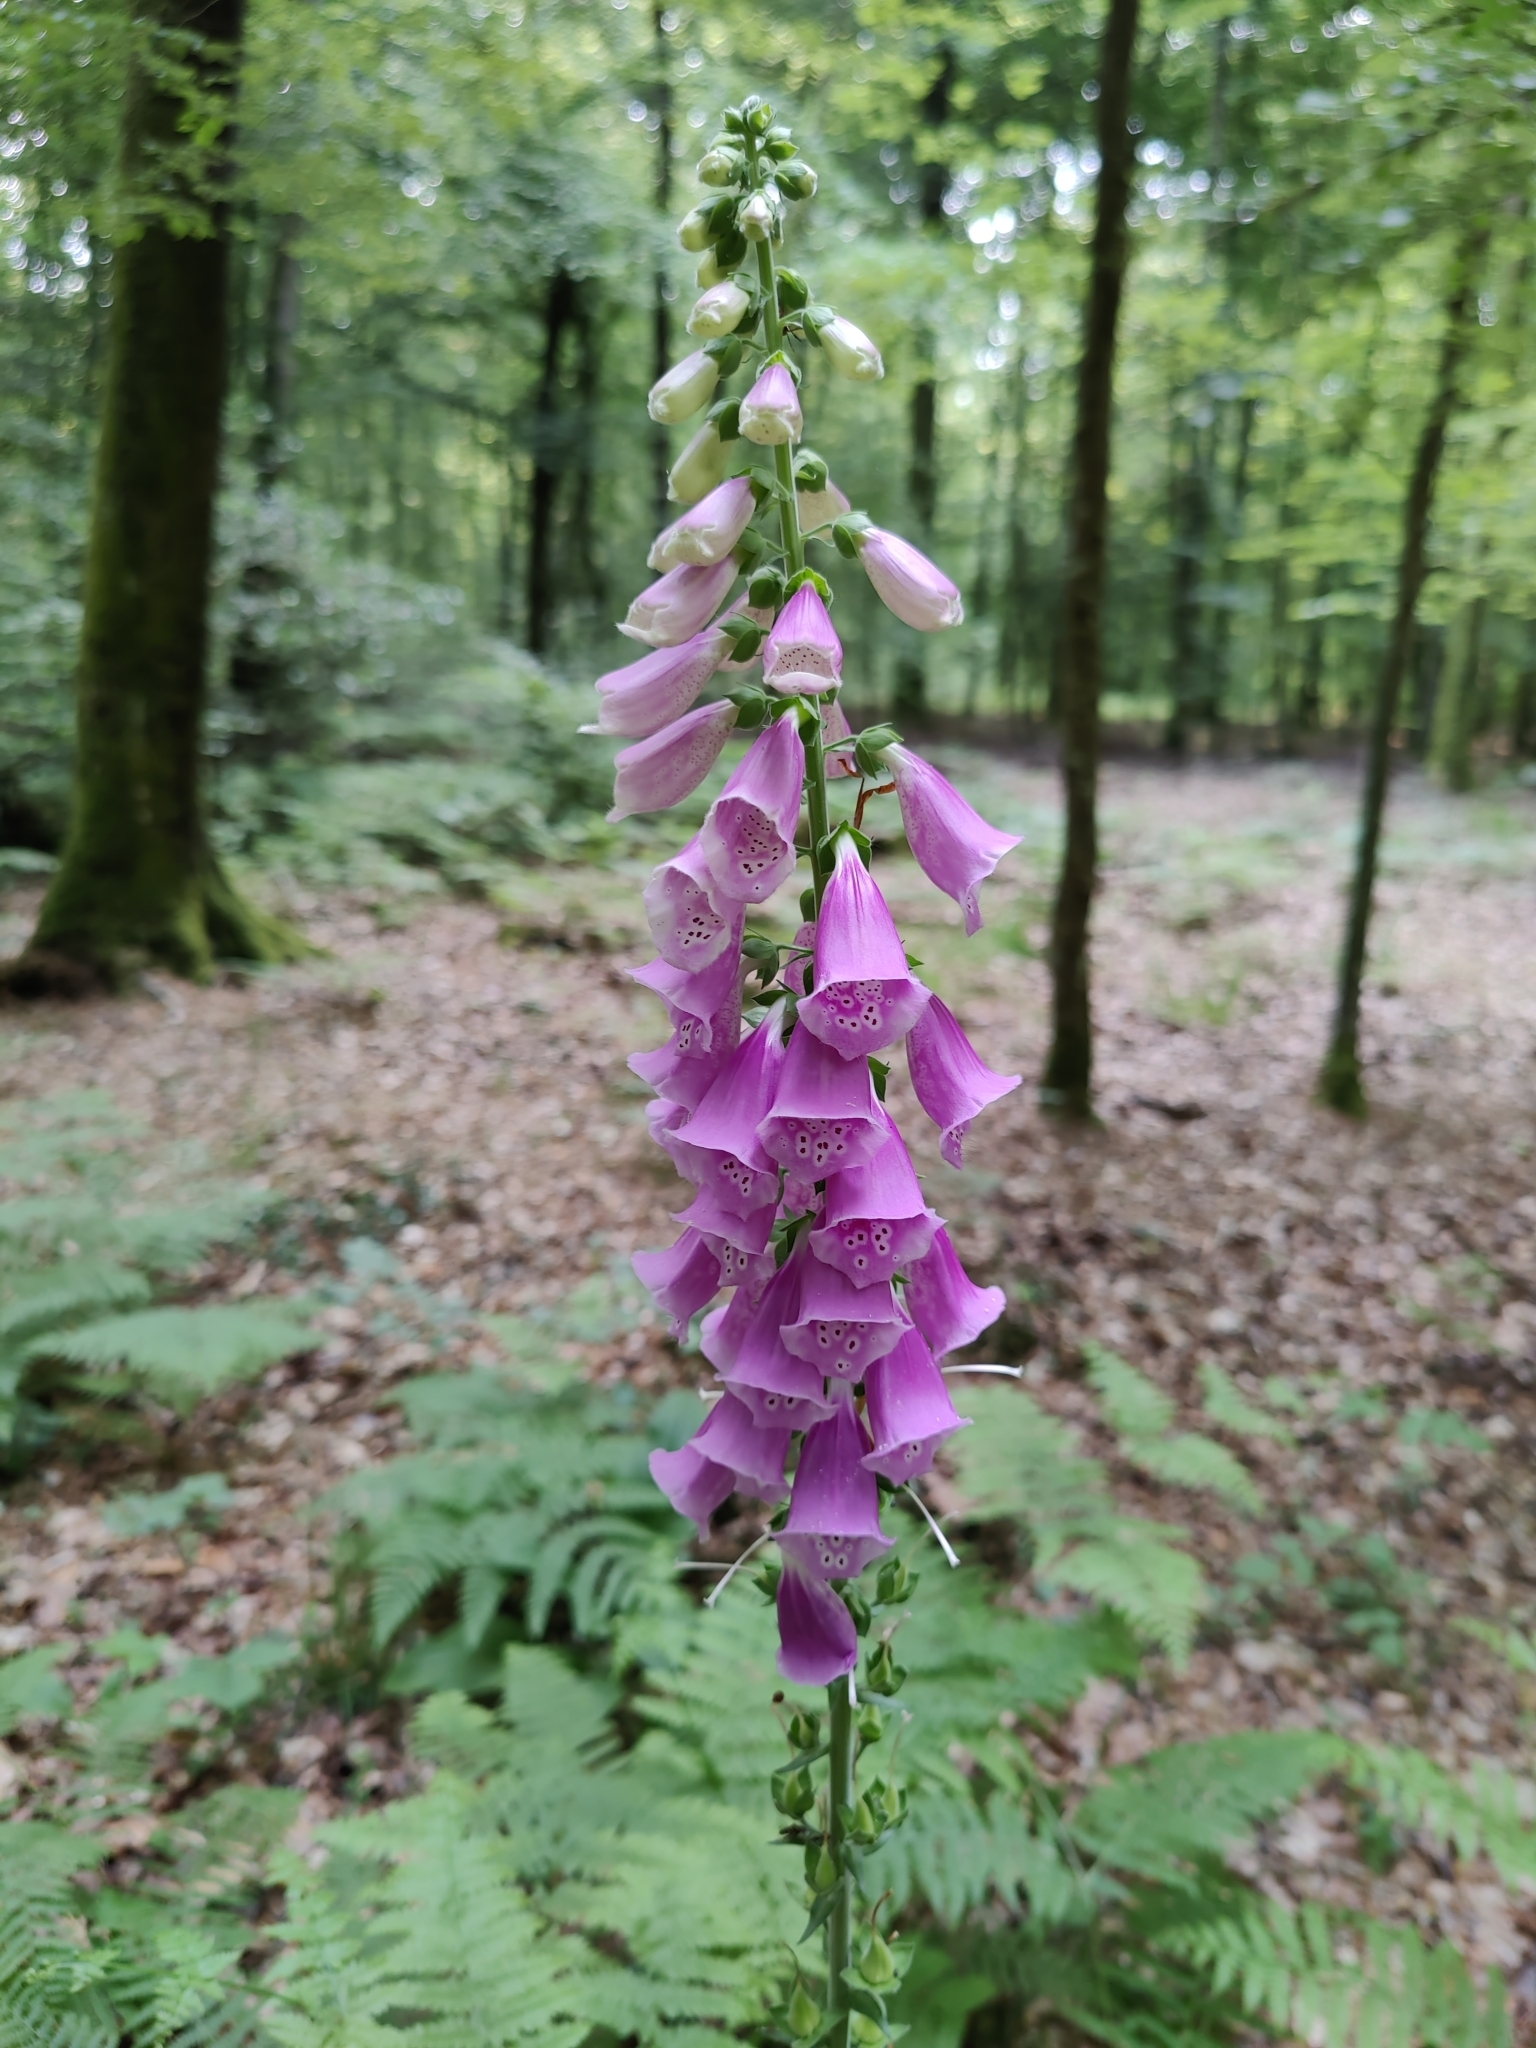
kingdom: Plantae
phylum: Tracheophyta
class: Magnoliopsida
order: Lamiales
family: Plantaginaceae
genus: Digitalis
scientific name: Digitalis purpurea
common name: Foxglove
